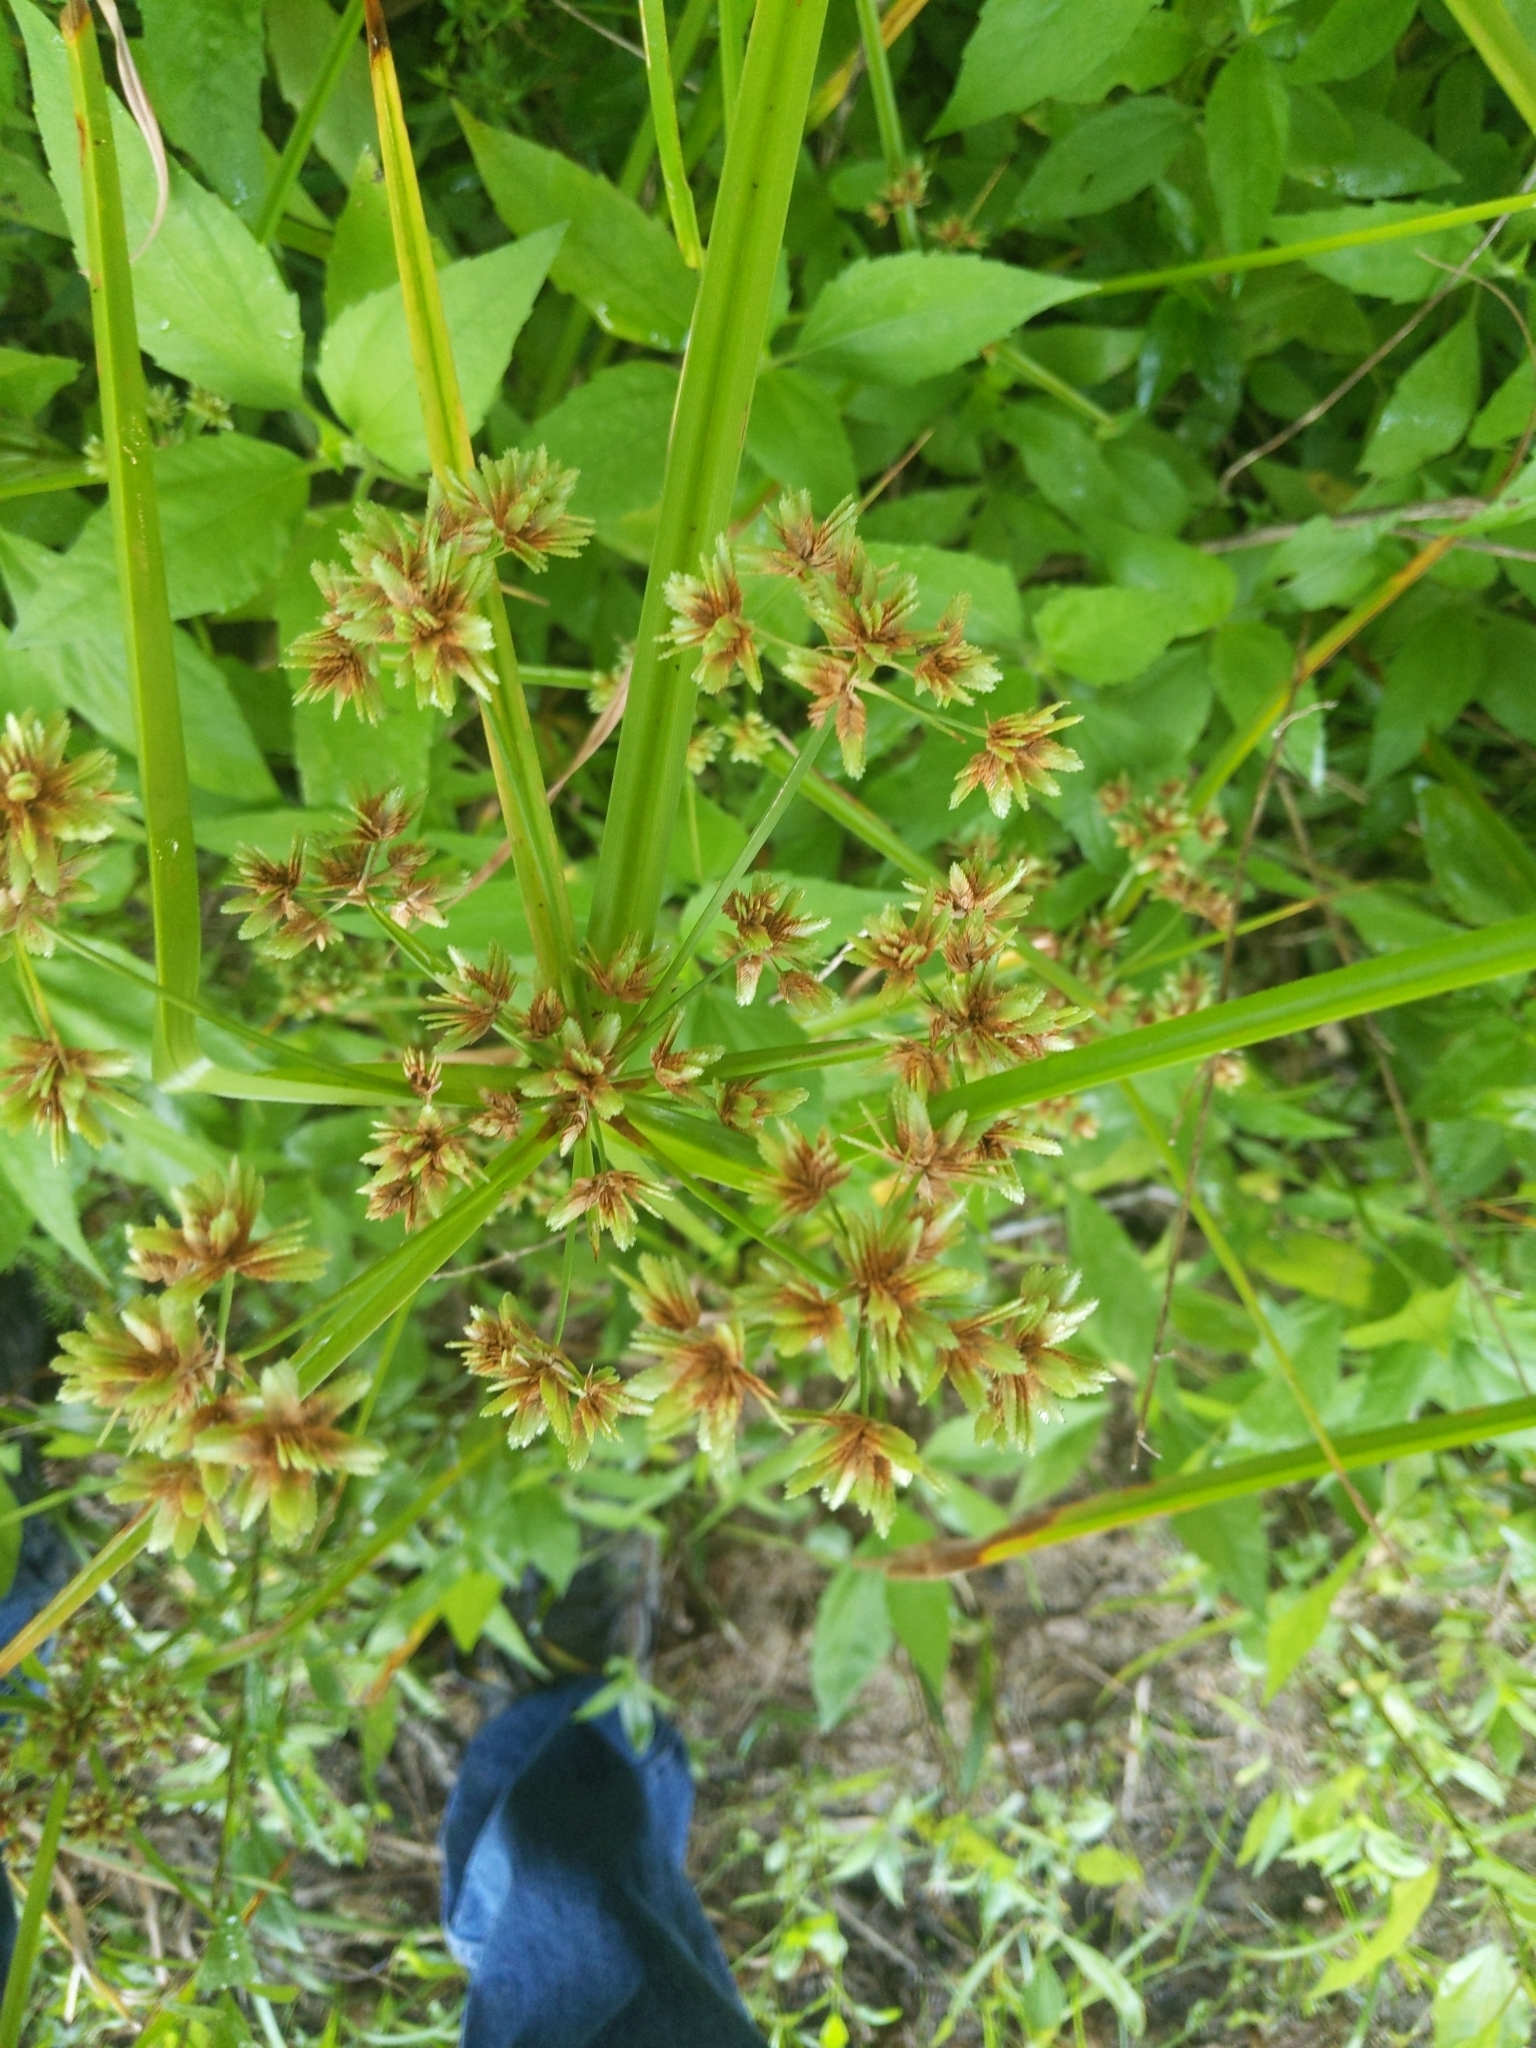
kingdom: Plantae
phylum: Tracheophyta
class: Liliopsida
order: Poales
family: Cyperaceae
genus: Cyperus
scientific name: Cyperus virens
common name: Green flatsedge
